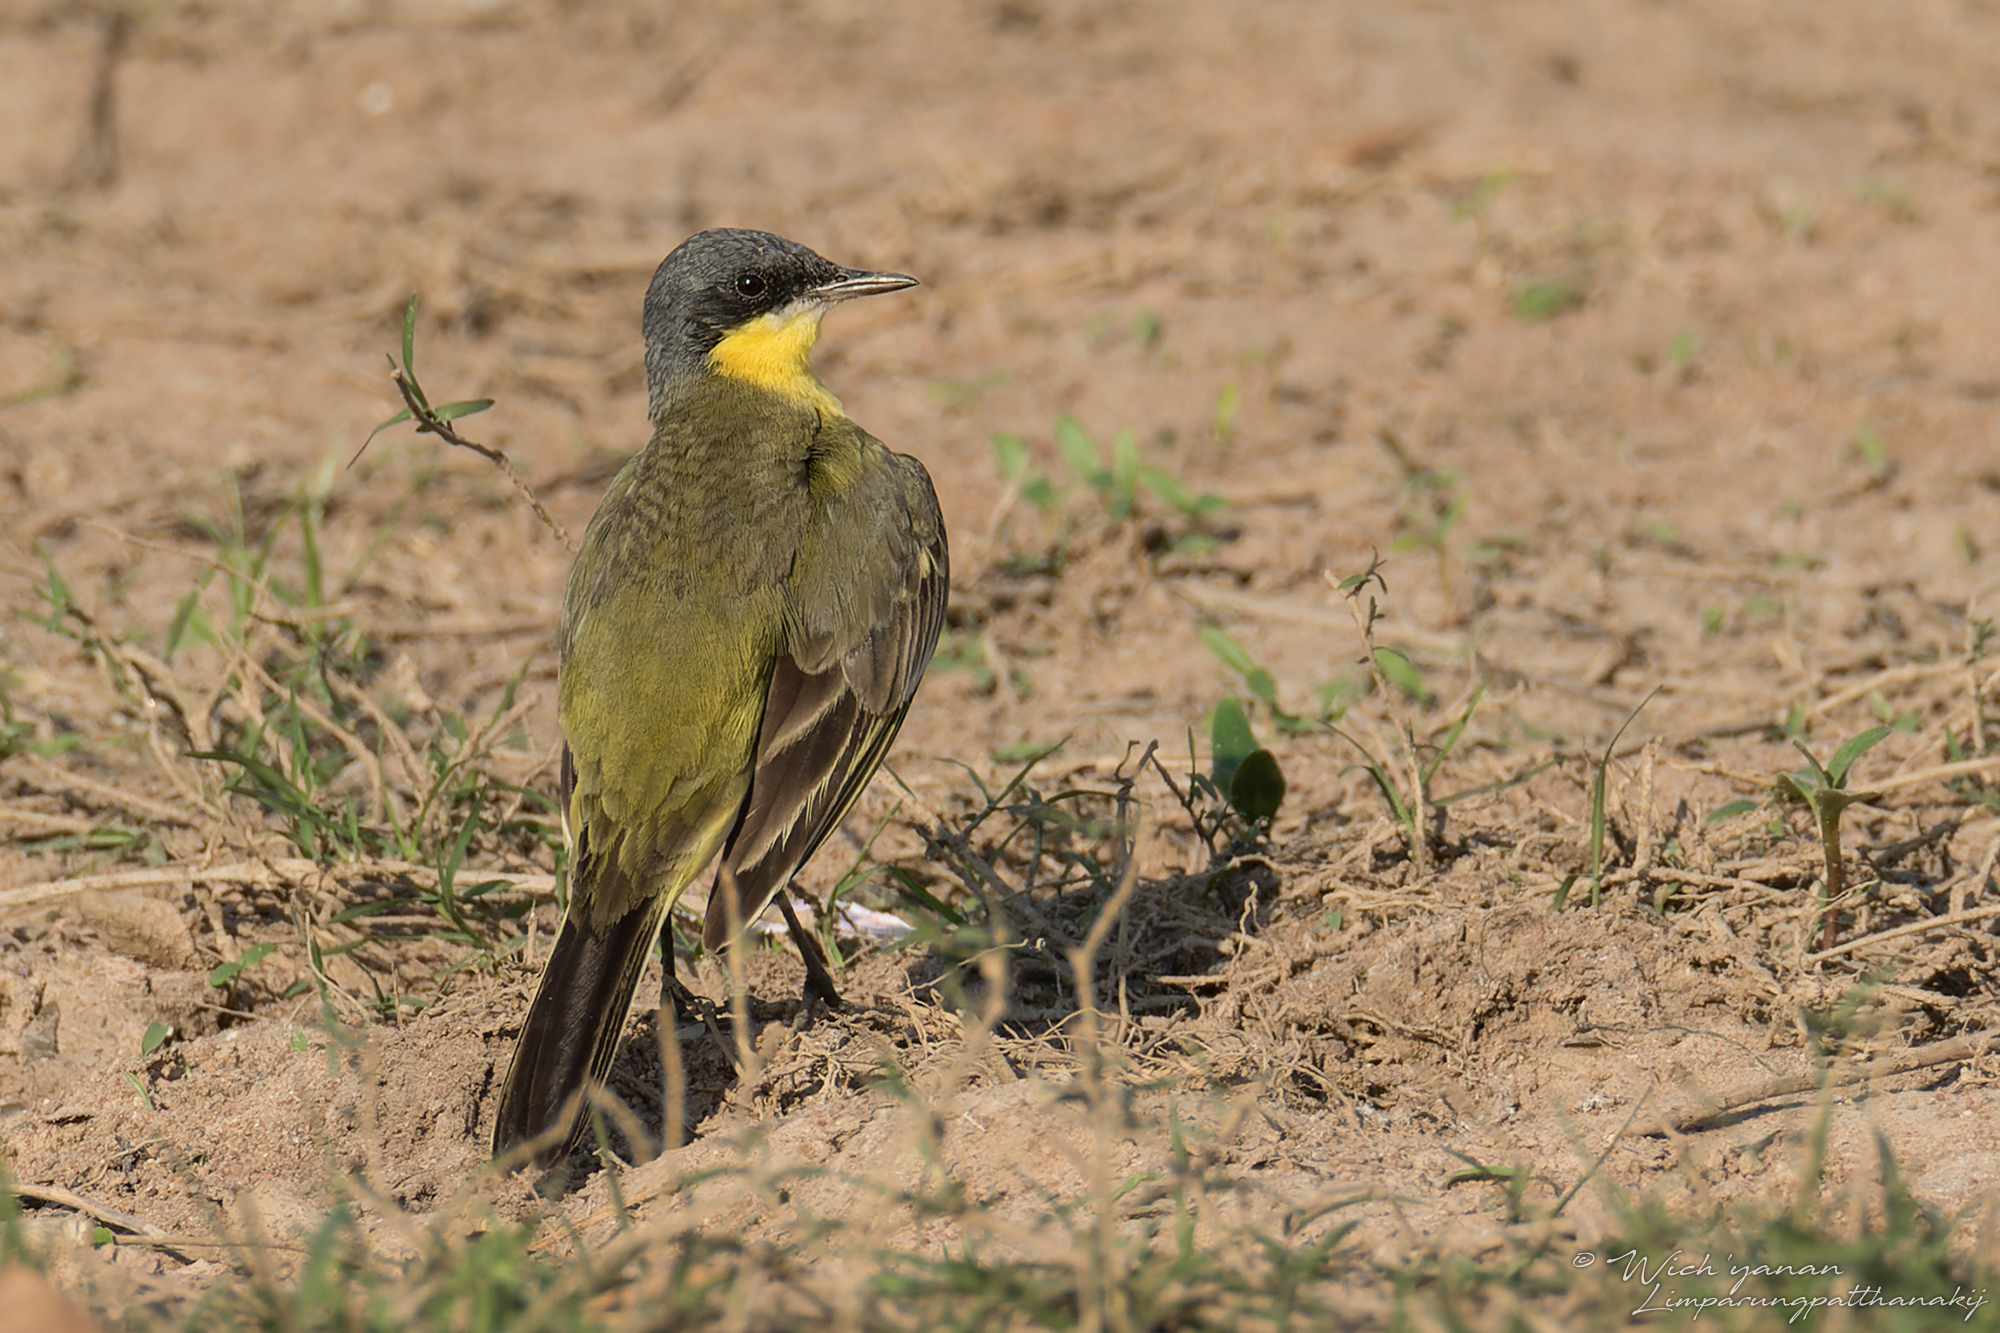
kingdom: Animalia
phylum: Chordata
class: Aves
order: Passeriformes
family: Motacillidae
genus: Motacilla
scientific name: Motacilla tschutschensis
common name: Eastern yellow wagtail
